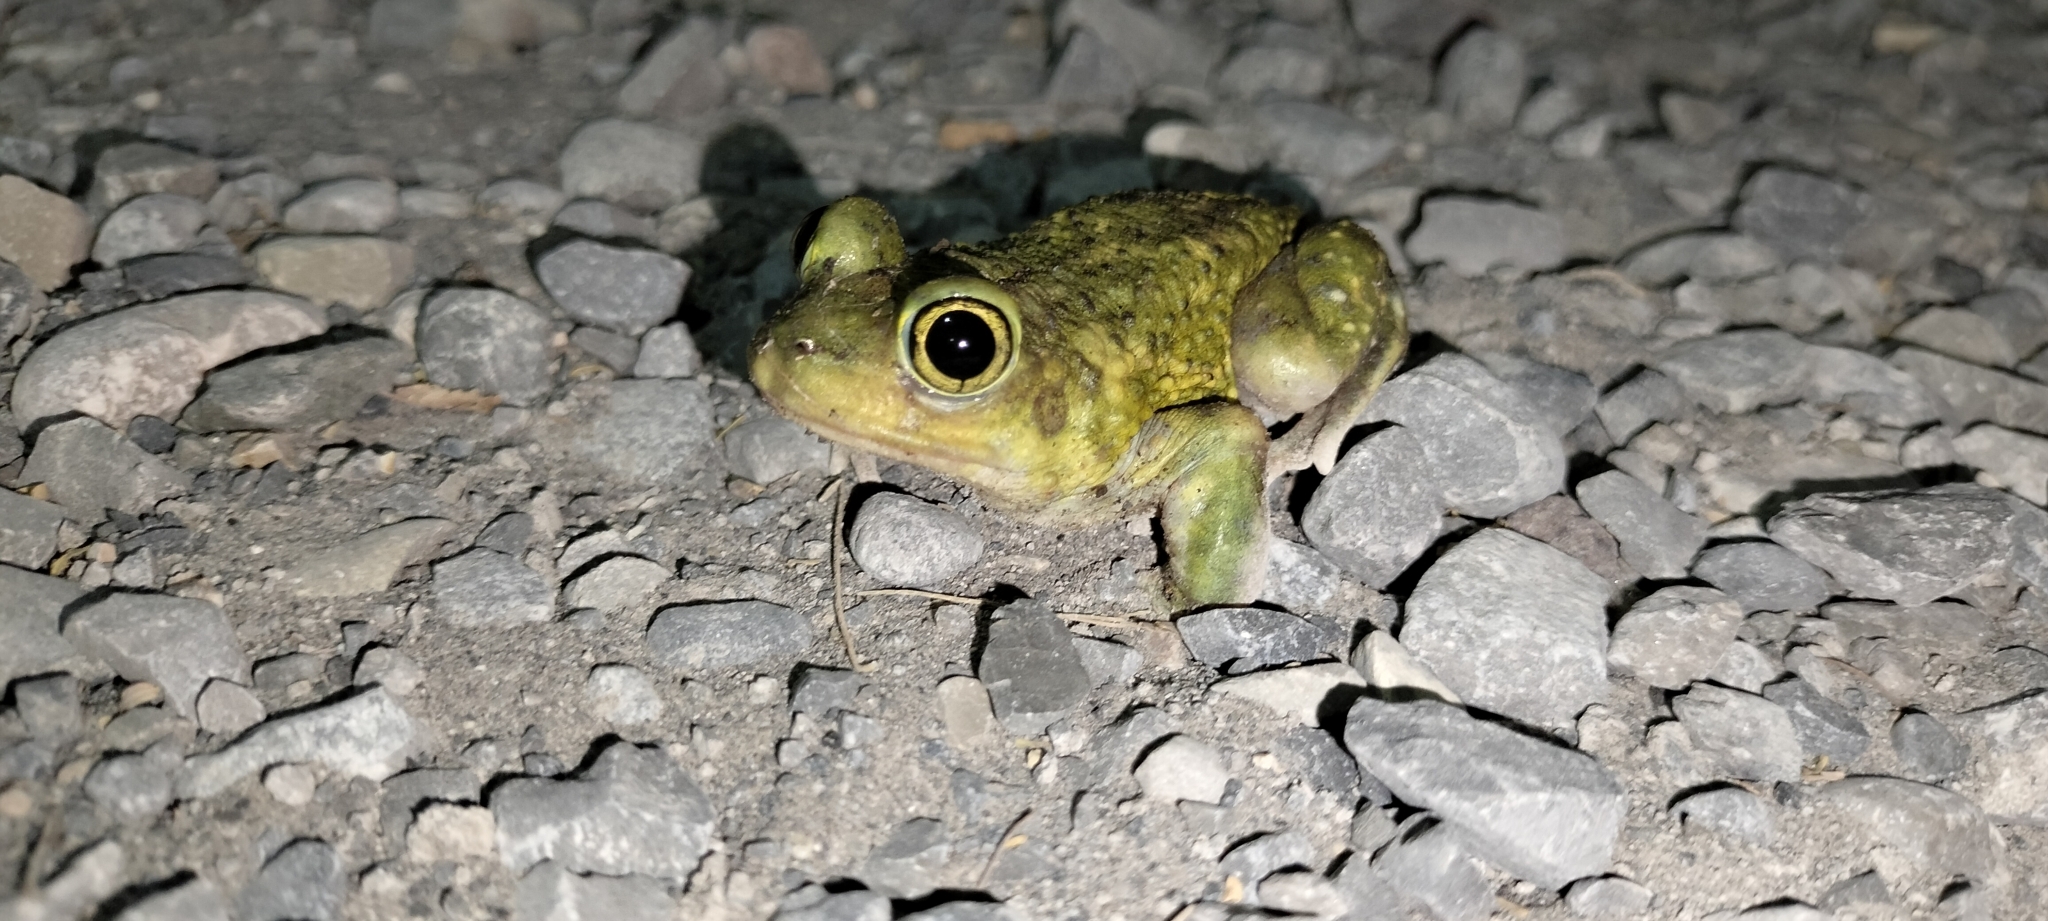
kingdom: Animalia
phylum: Chordata
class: Amphibia
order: Anura
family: Scaphiopodidae
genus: Scaphiopus
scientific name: Scaphiopus couchii
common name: Couch's spadefoot toad
